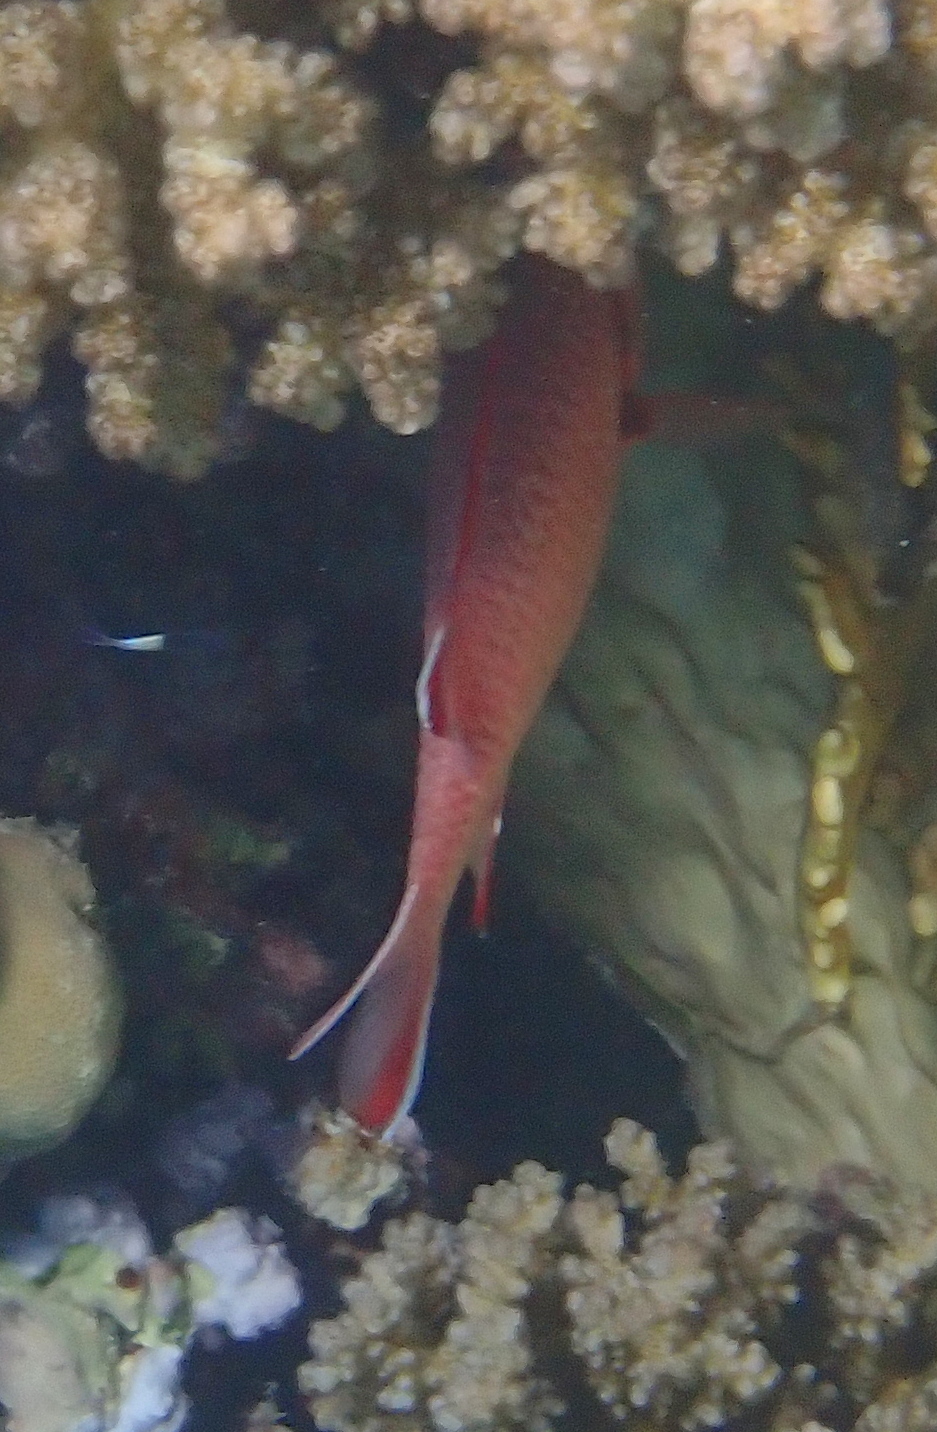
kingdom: Animalia
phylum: Chordata
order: Beryciformes
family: Holocentridae
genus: Myripristis
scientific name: Myripristis murdjan
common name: Big-eye soldierfish
